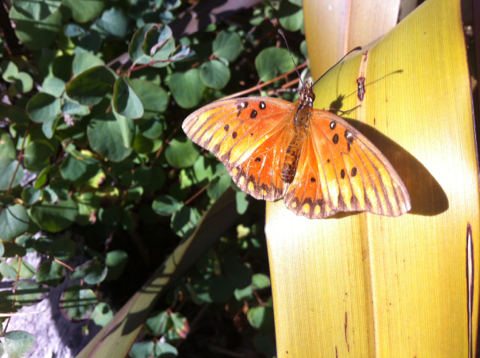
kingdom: Animalia
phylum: Arthropoda
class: Insecta
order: Lepidoptera
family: Nymphalidae
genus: Dione
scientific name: Dione vanillae
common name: Gulf fritillary
